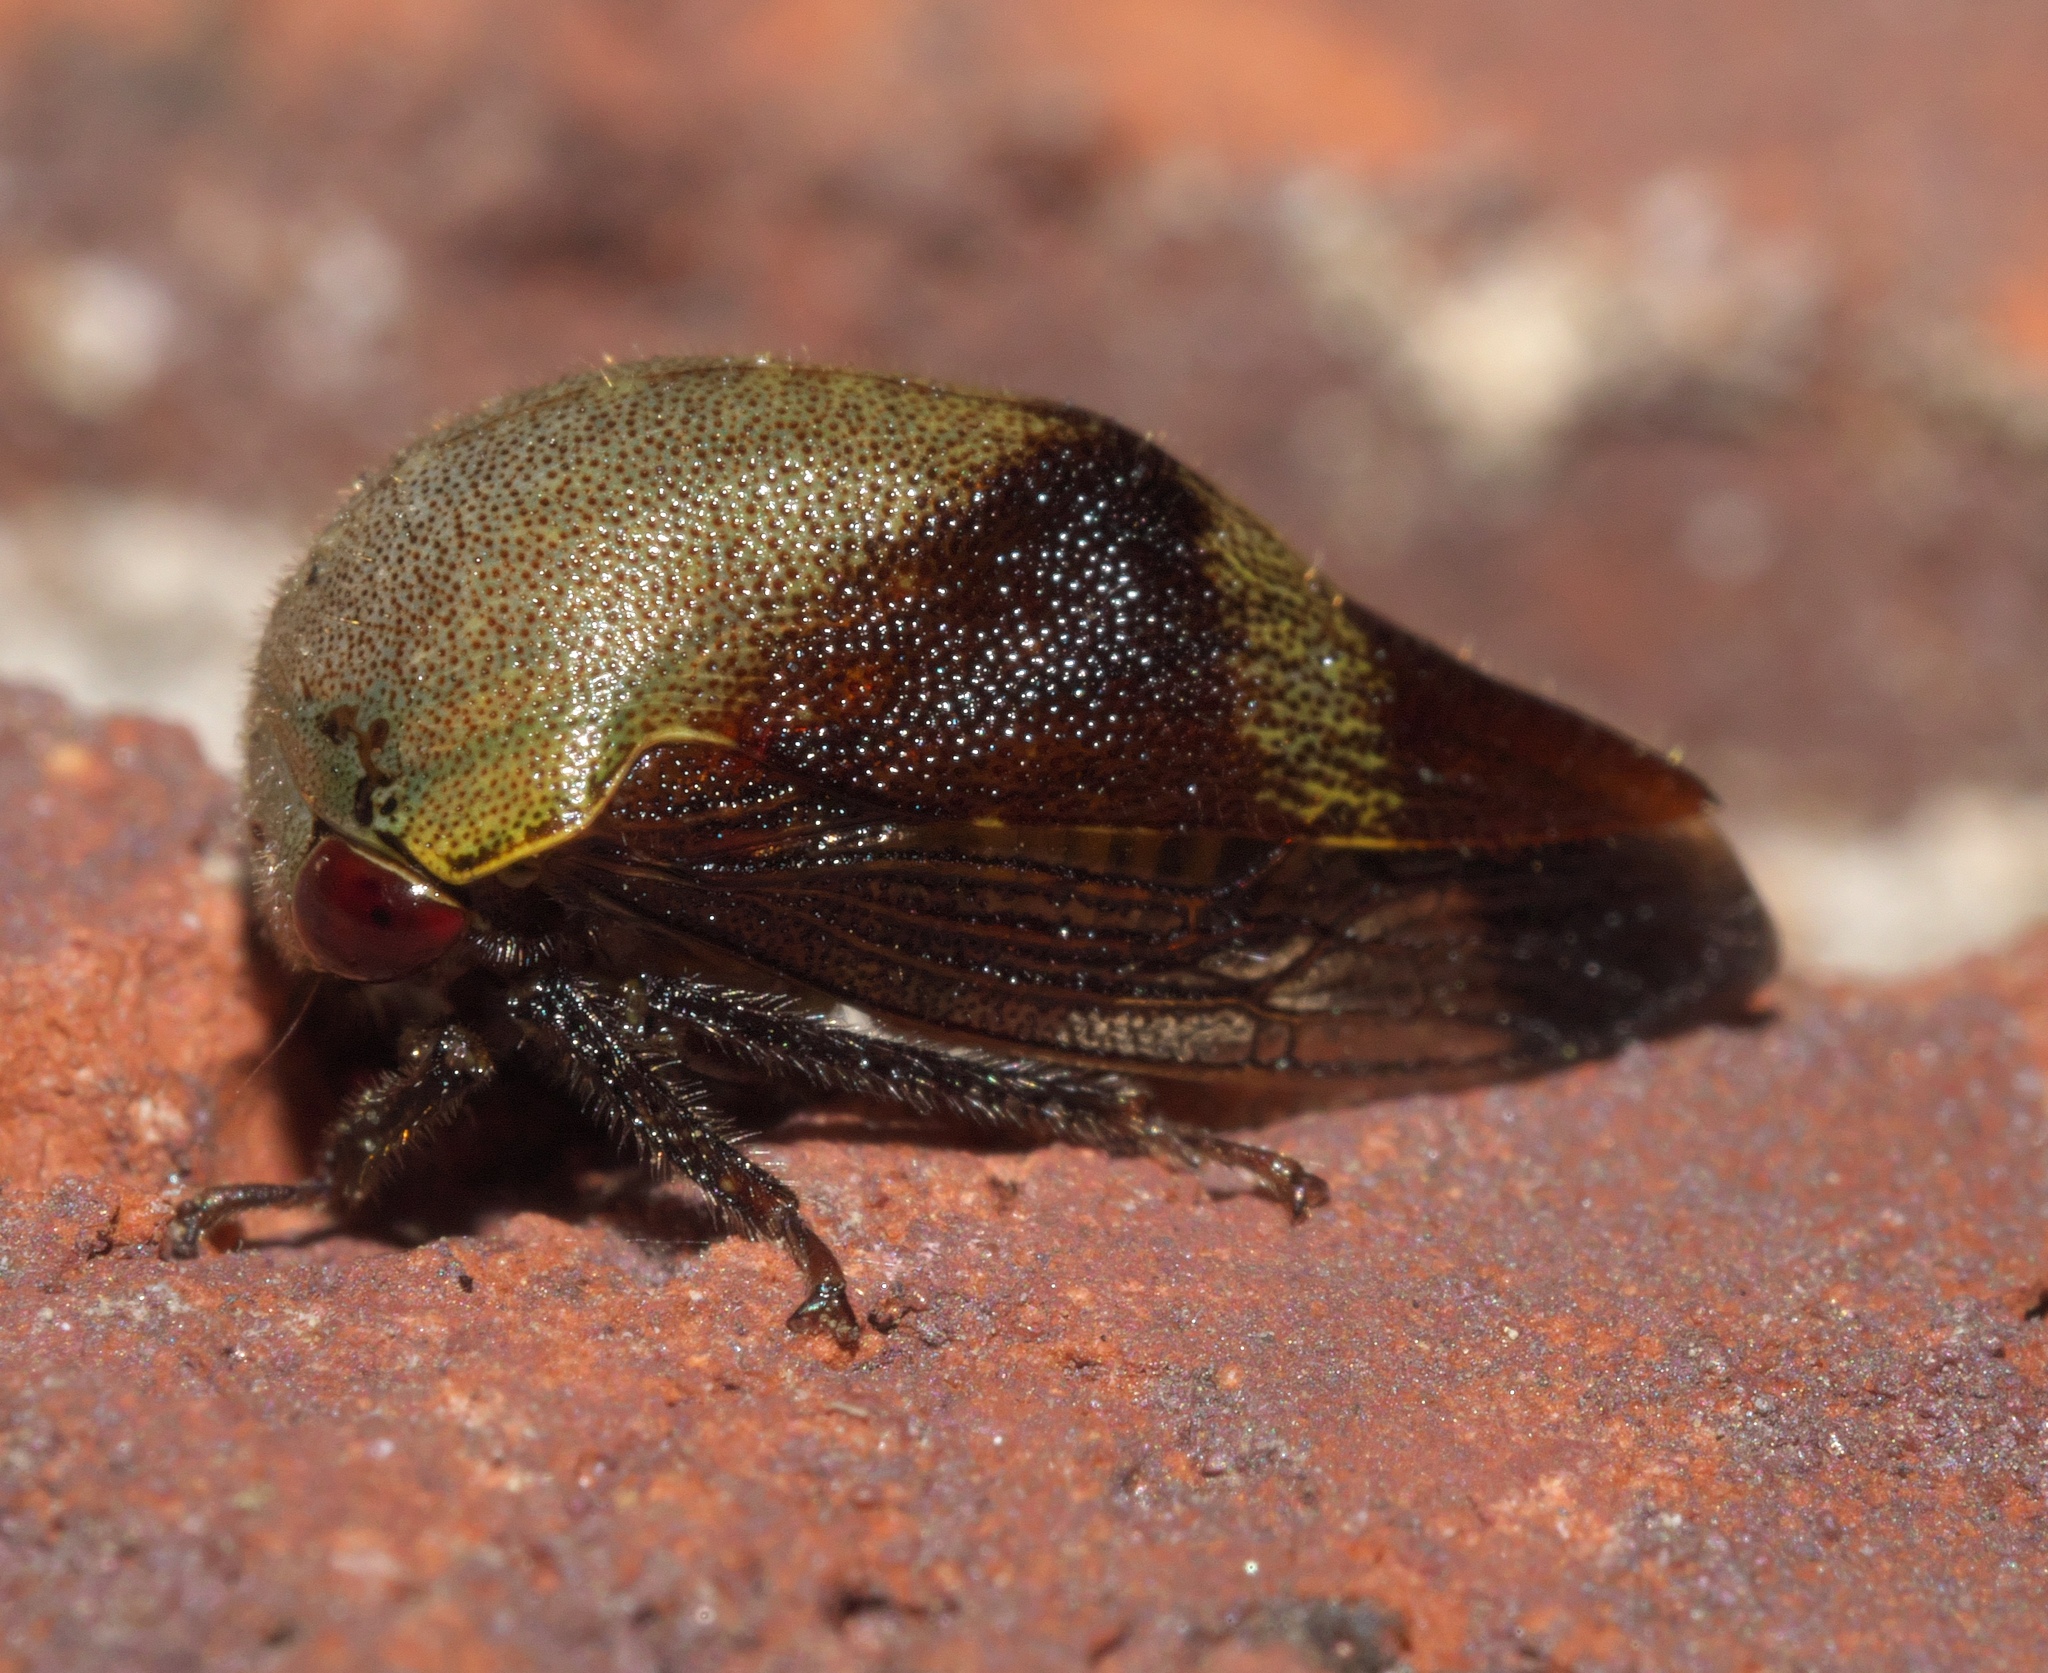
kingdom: Animalia
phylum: Arthropoda
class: Insecta
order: Hemiptera
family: Membracidae
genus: Carynota
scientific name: Carynota mera
